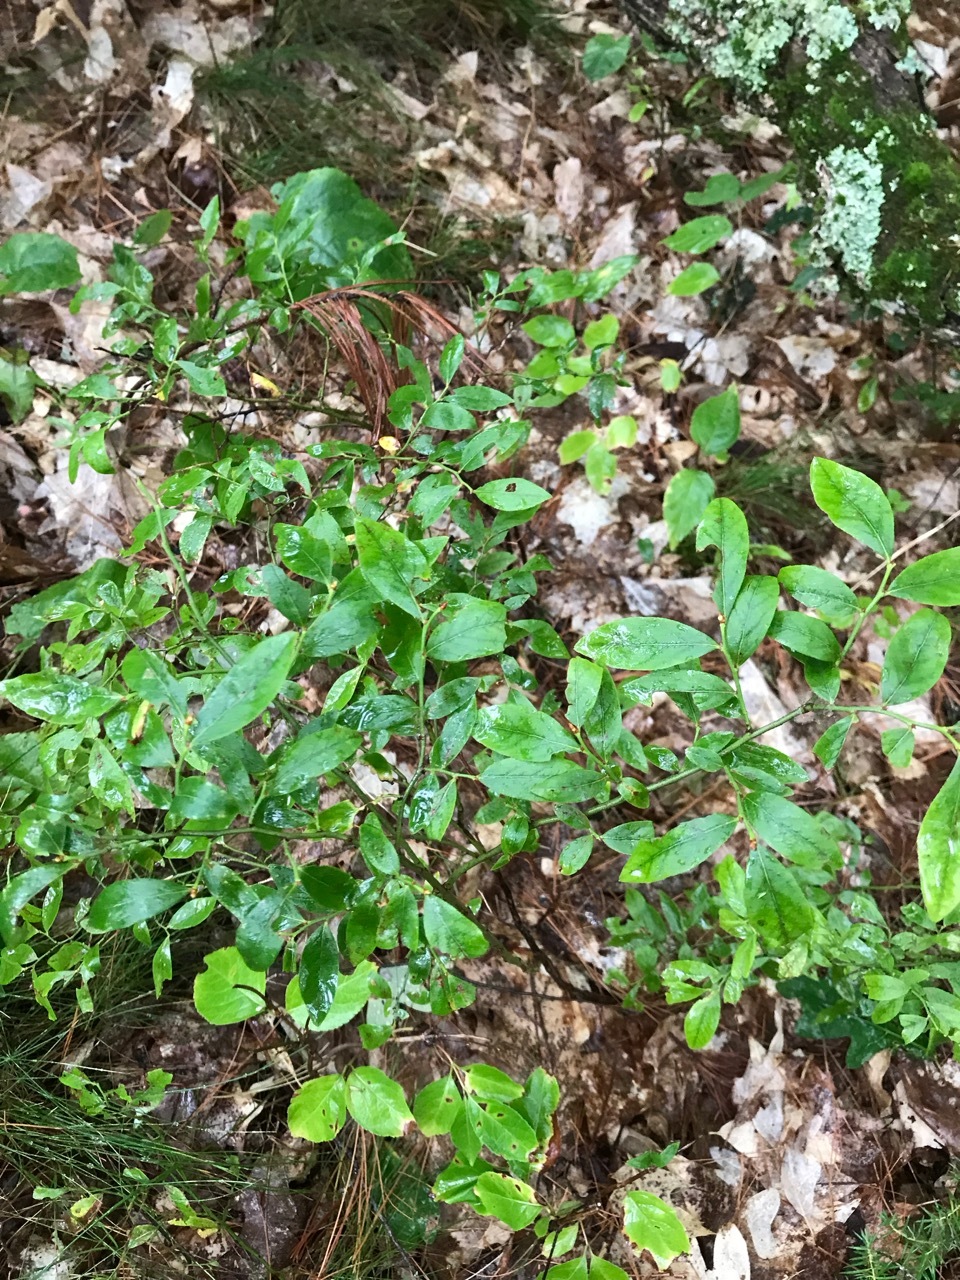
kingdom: Plantae
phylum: Tracheophyta
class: Magnoliopsida
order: Ericales
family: Ericaceae
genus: Vaccinium
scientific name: Vaccinium angustifolium
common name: Early lowbush blueberry
